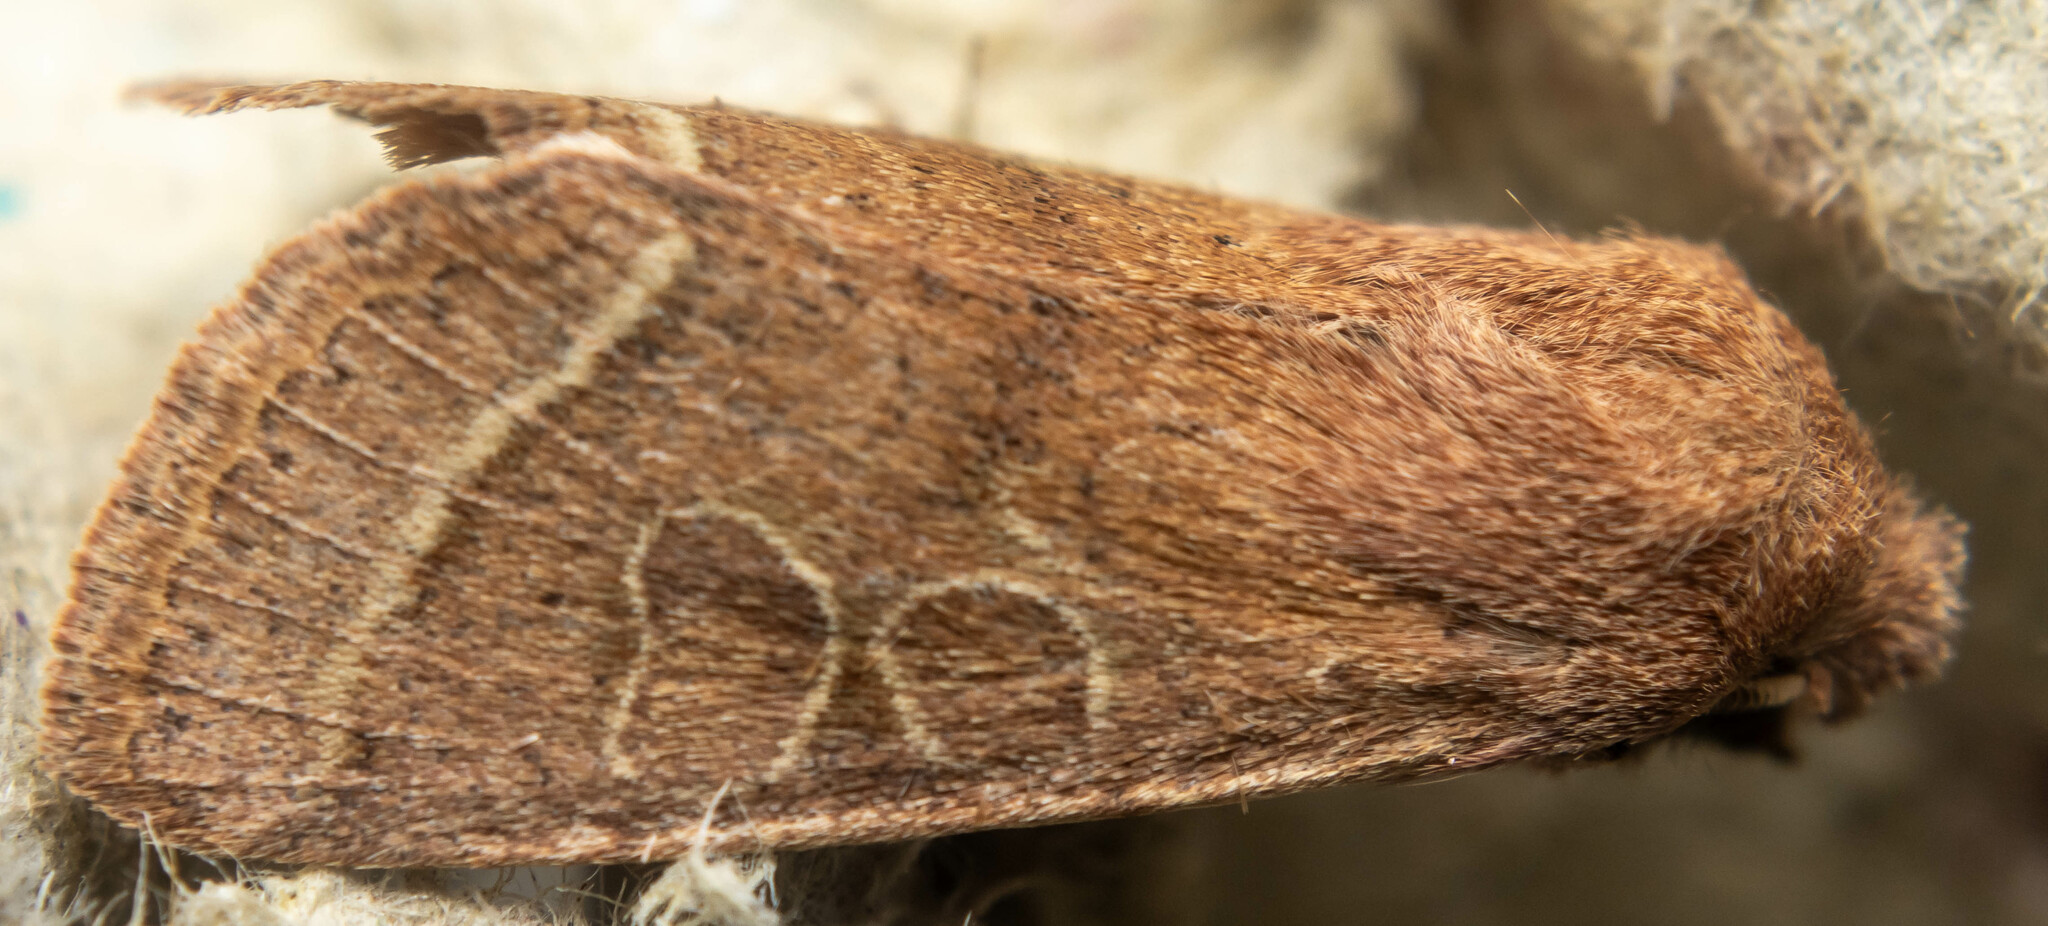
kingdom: Animalia
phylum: Arthropoda
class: Insecta
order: Lepidoptera
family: Noctuidae
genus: Orthosia
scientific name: Orthosia cerasi
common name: Common quaker
